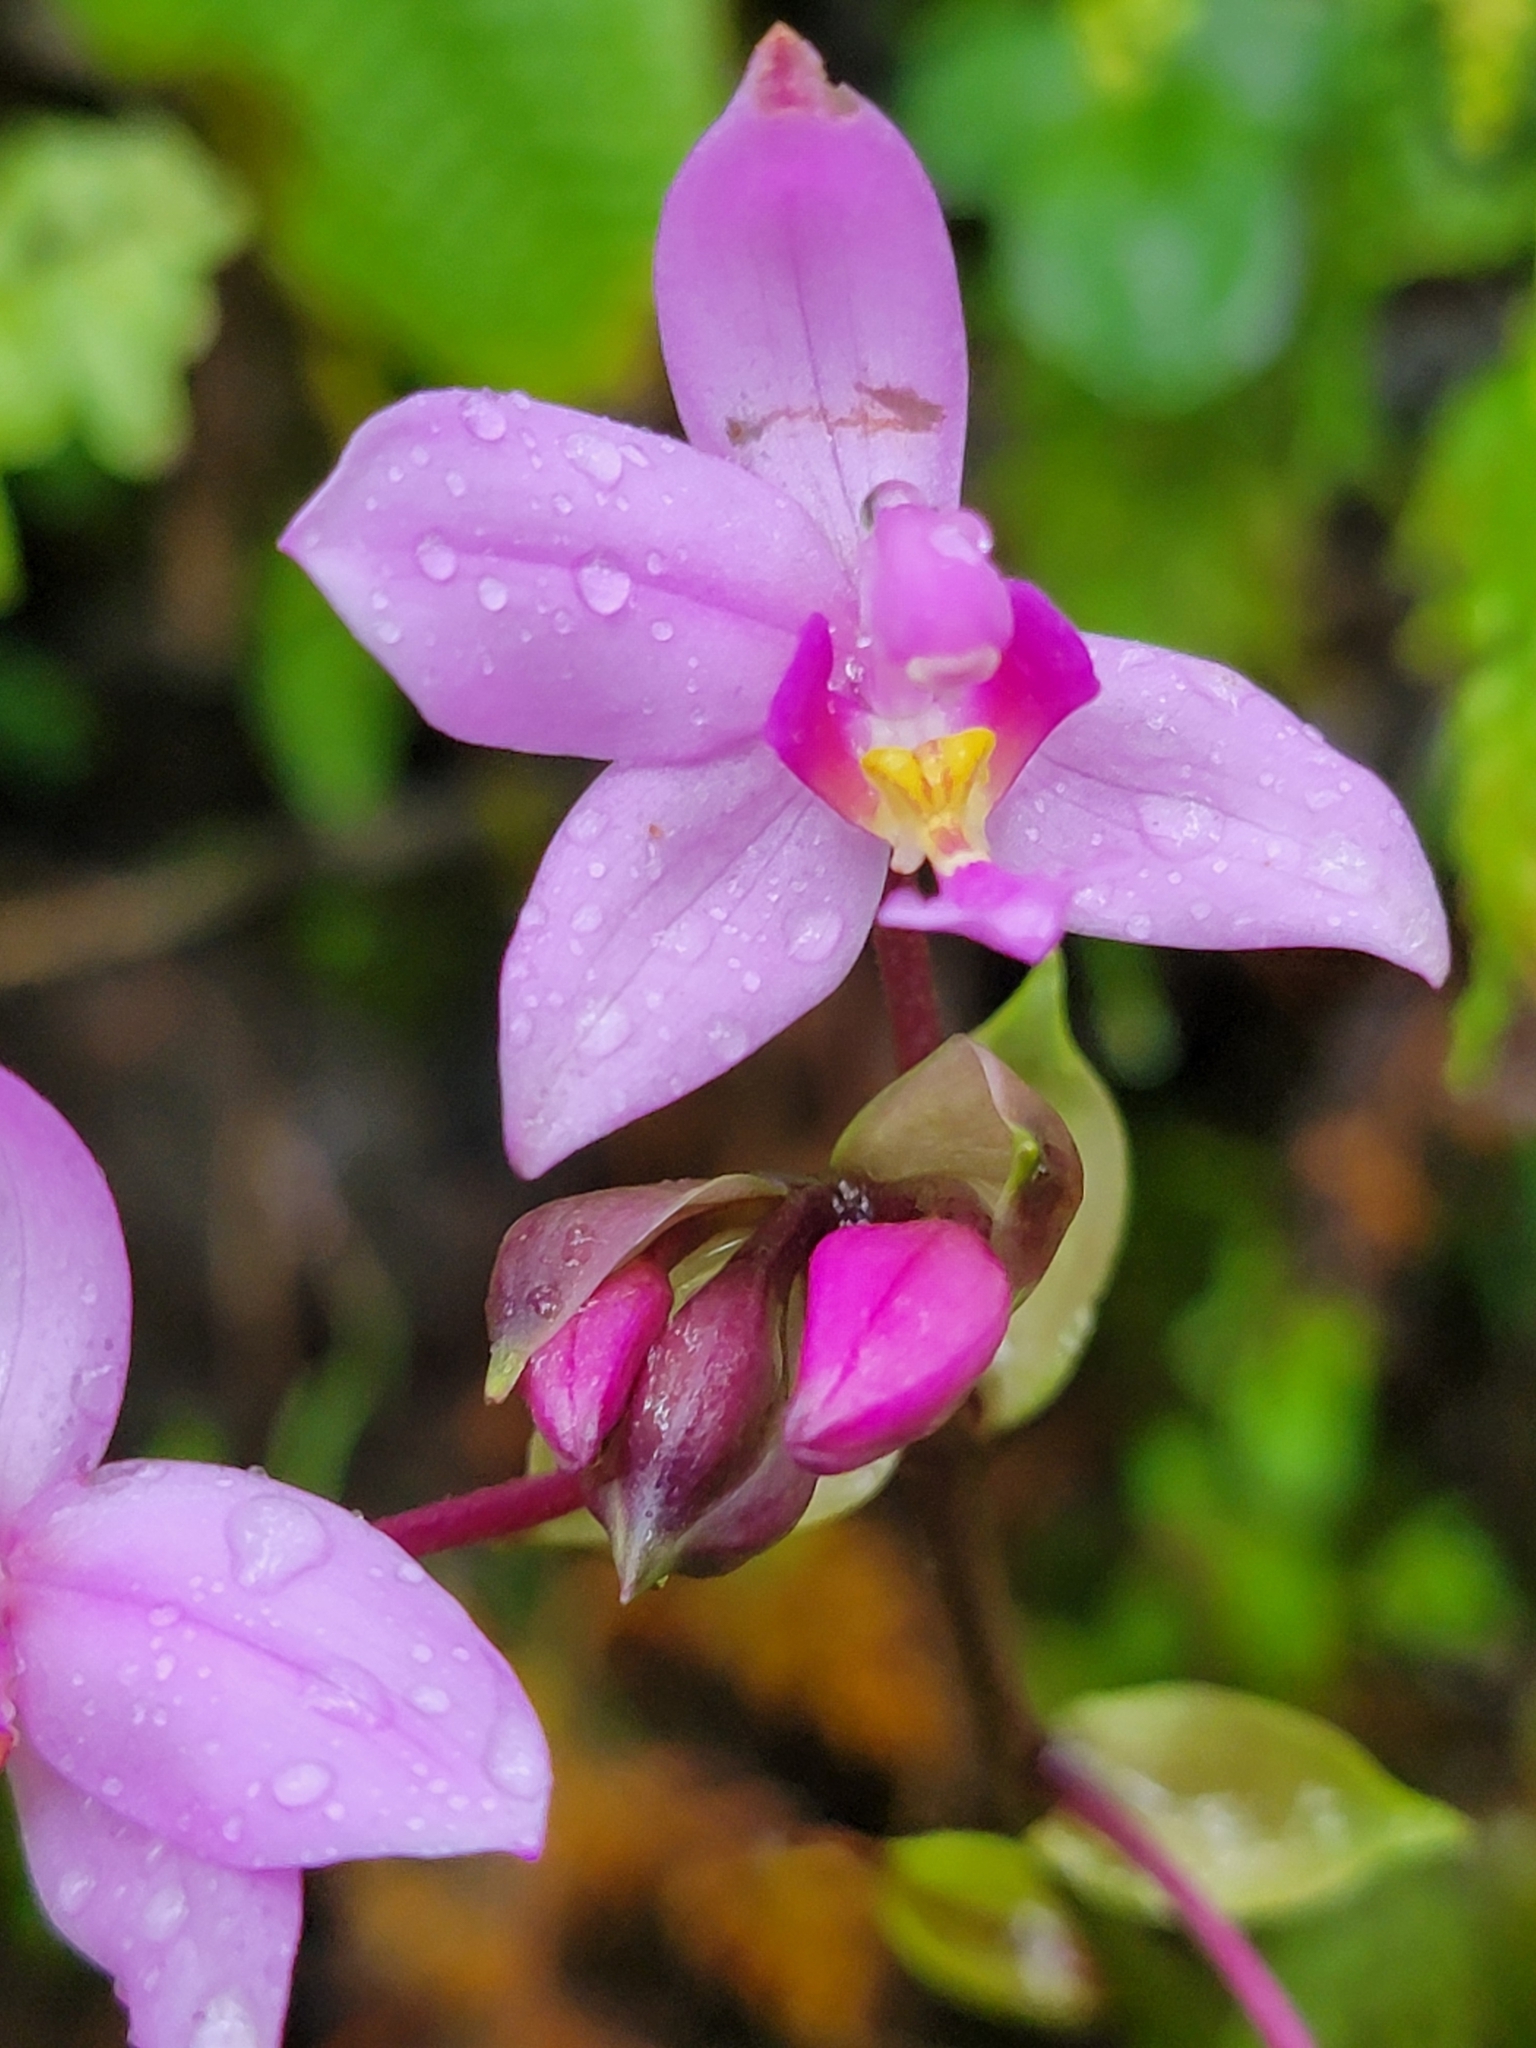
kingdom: Plantae
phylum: Tracheophyta
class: Liliopsida
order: Asparagales
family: Orchidaceae
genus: Spathoglottis
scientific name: Spathoglottis plicata
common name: Philippine ground orchid
